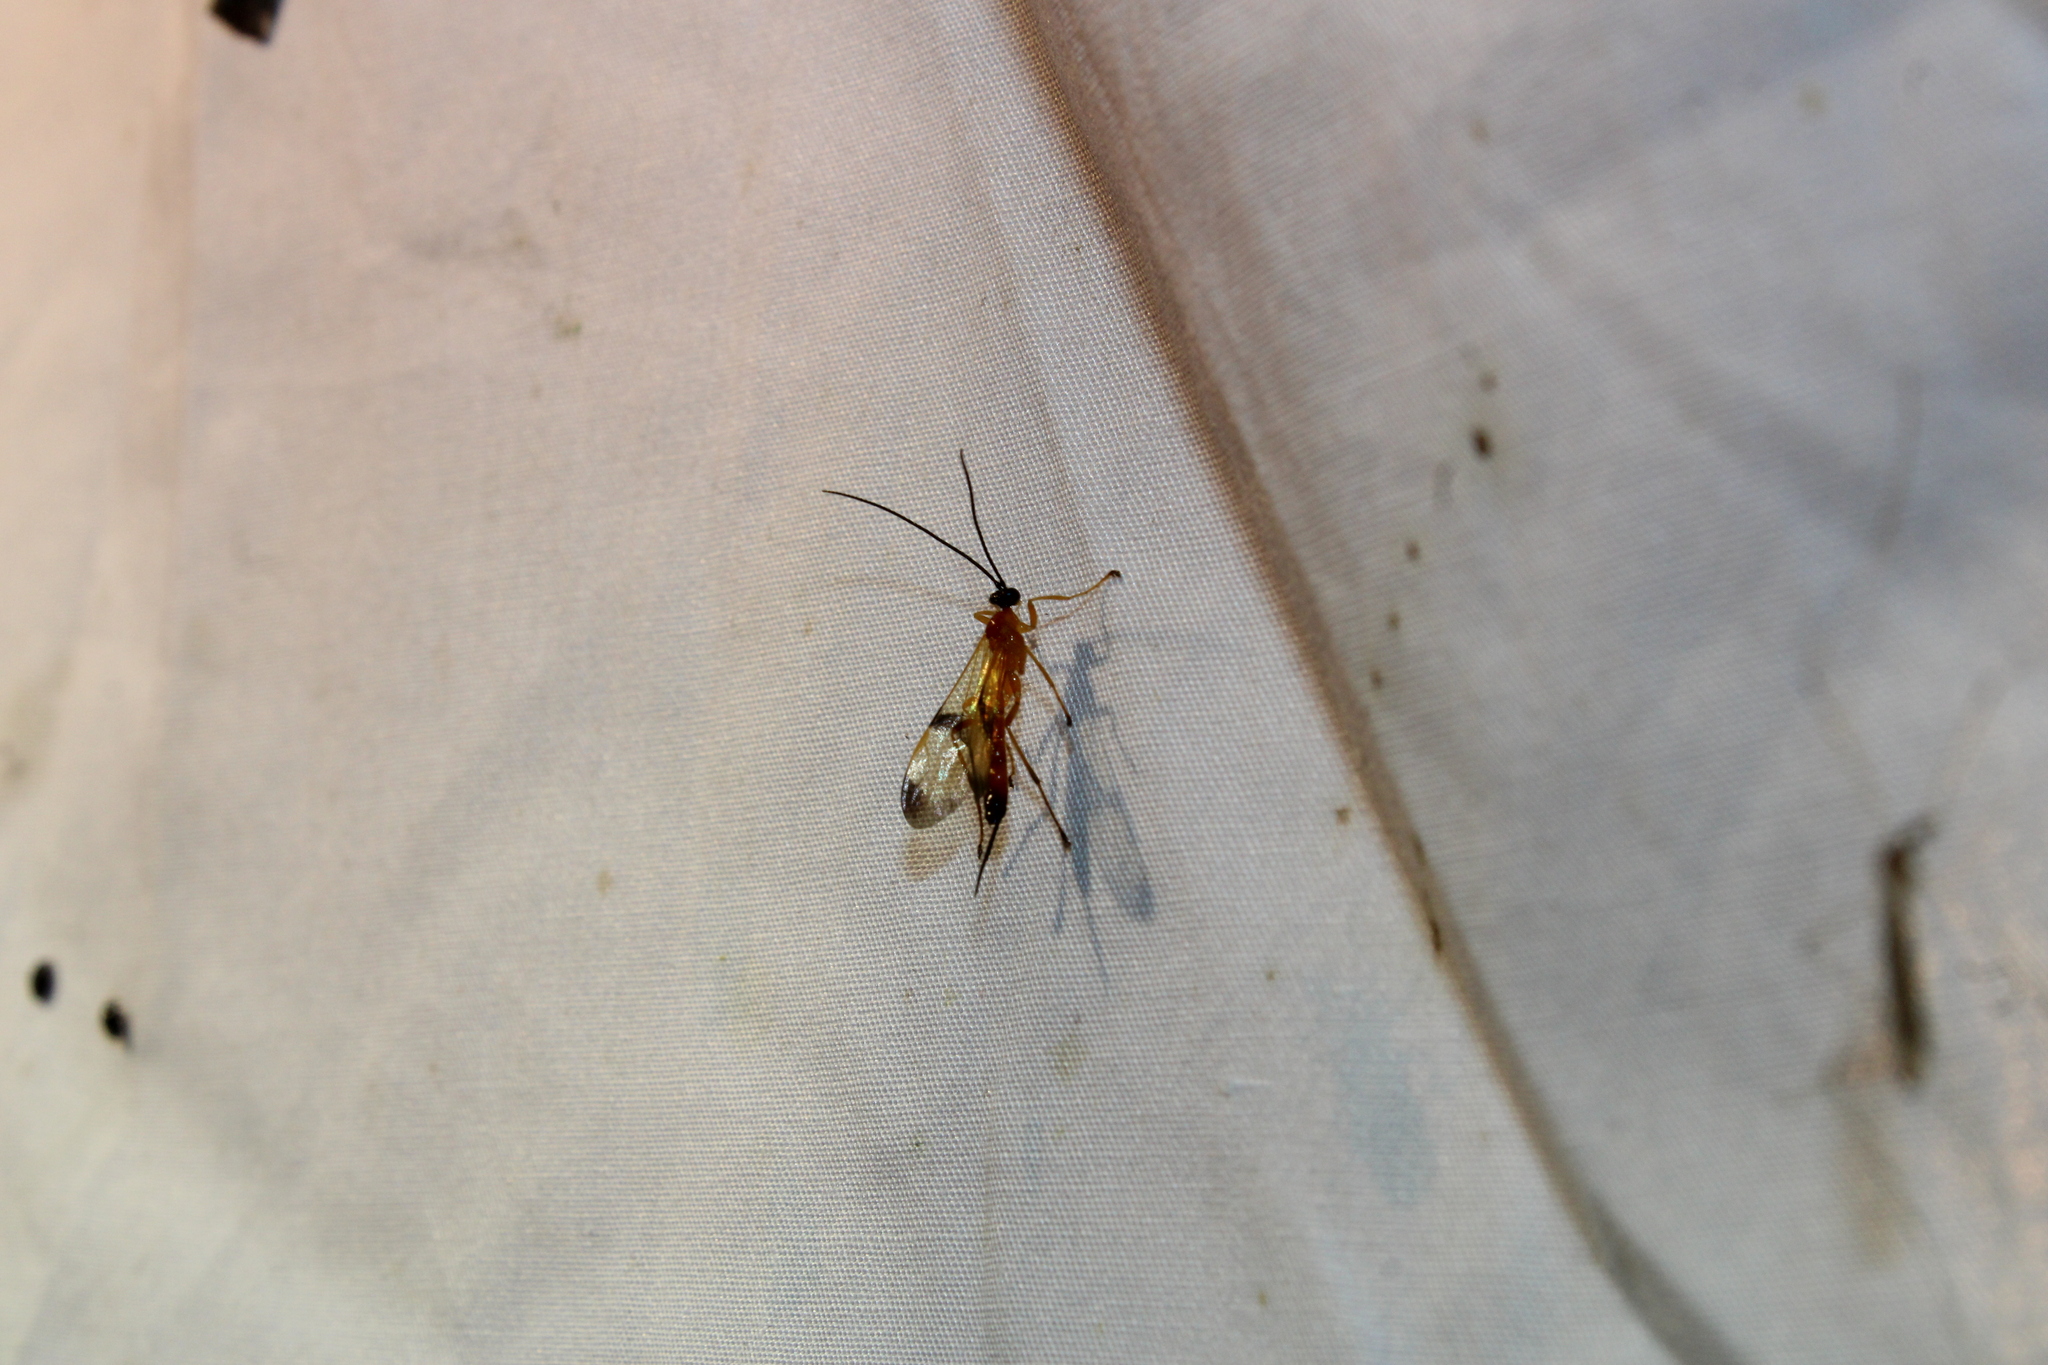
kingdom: Animalia
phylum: Arthropoda
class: Insecta
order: Hymenoptera
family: Ichneumonidae
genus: Acrotaphus
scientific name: Acrotaphus wiltii
